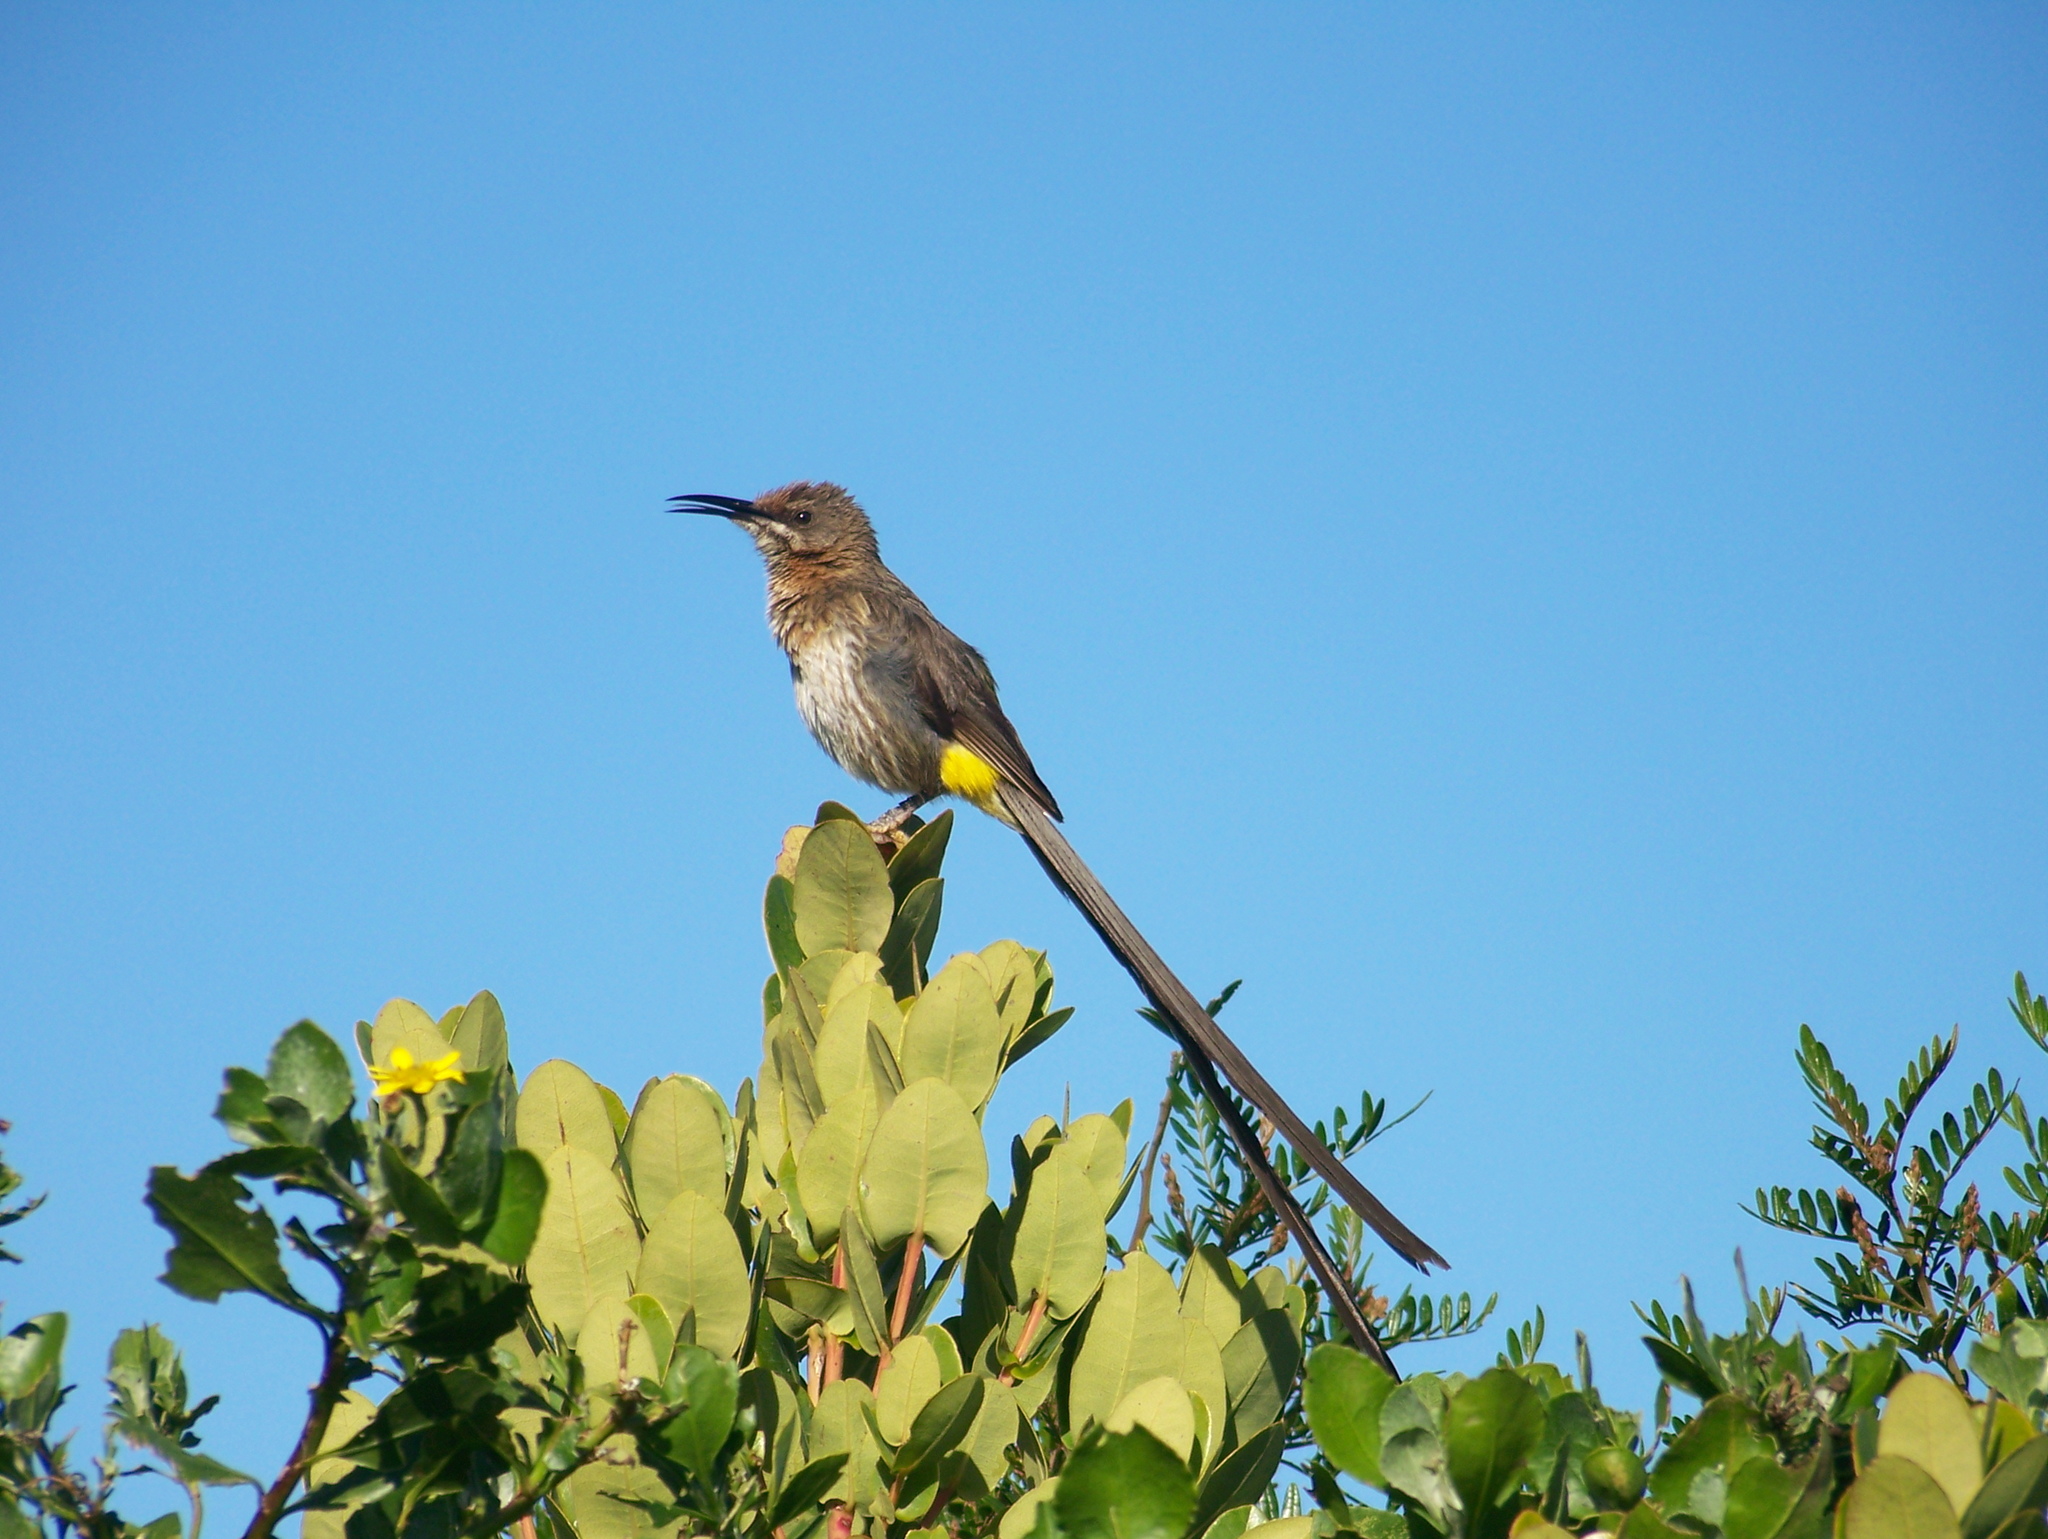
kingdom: Animalia
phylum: Chordata
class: Aves
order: Passeriformes
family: Promeropidae
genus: Promerops
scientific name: Promerops cafer
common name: Cape sugarbird
